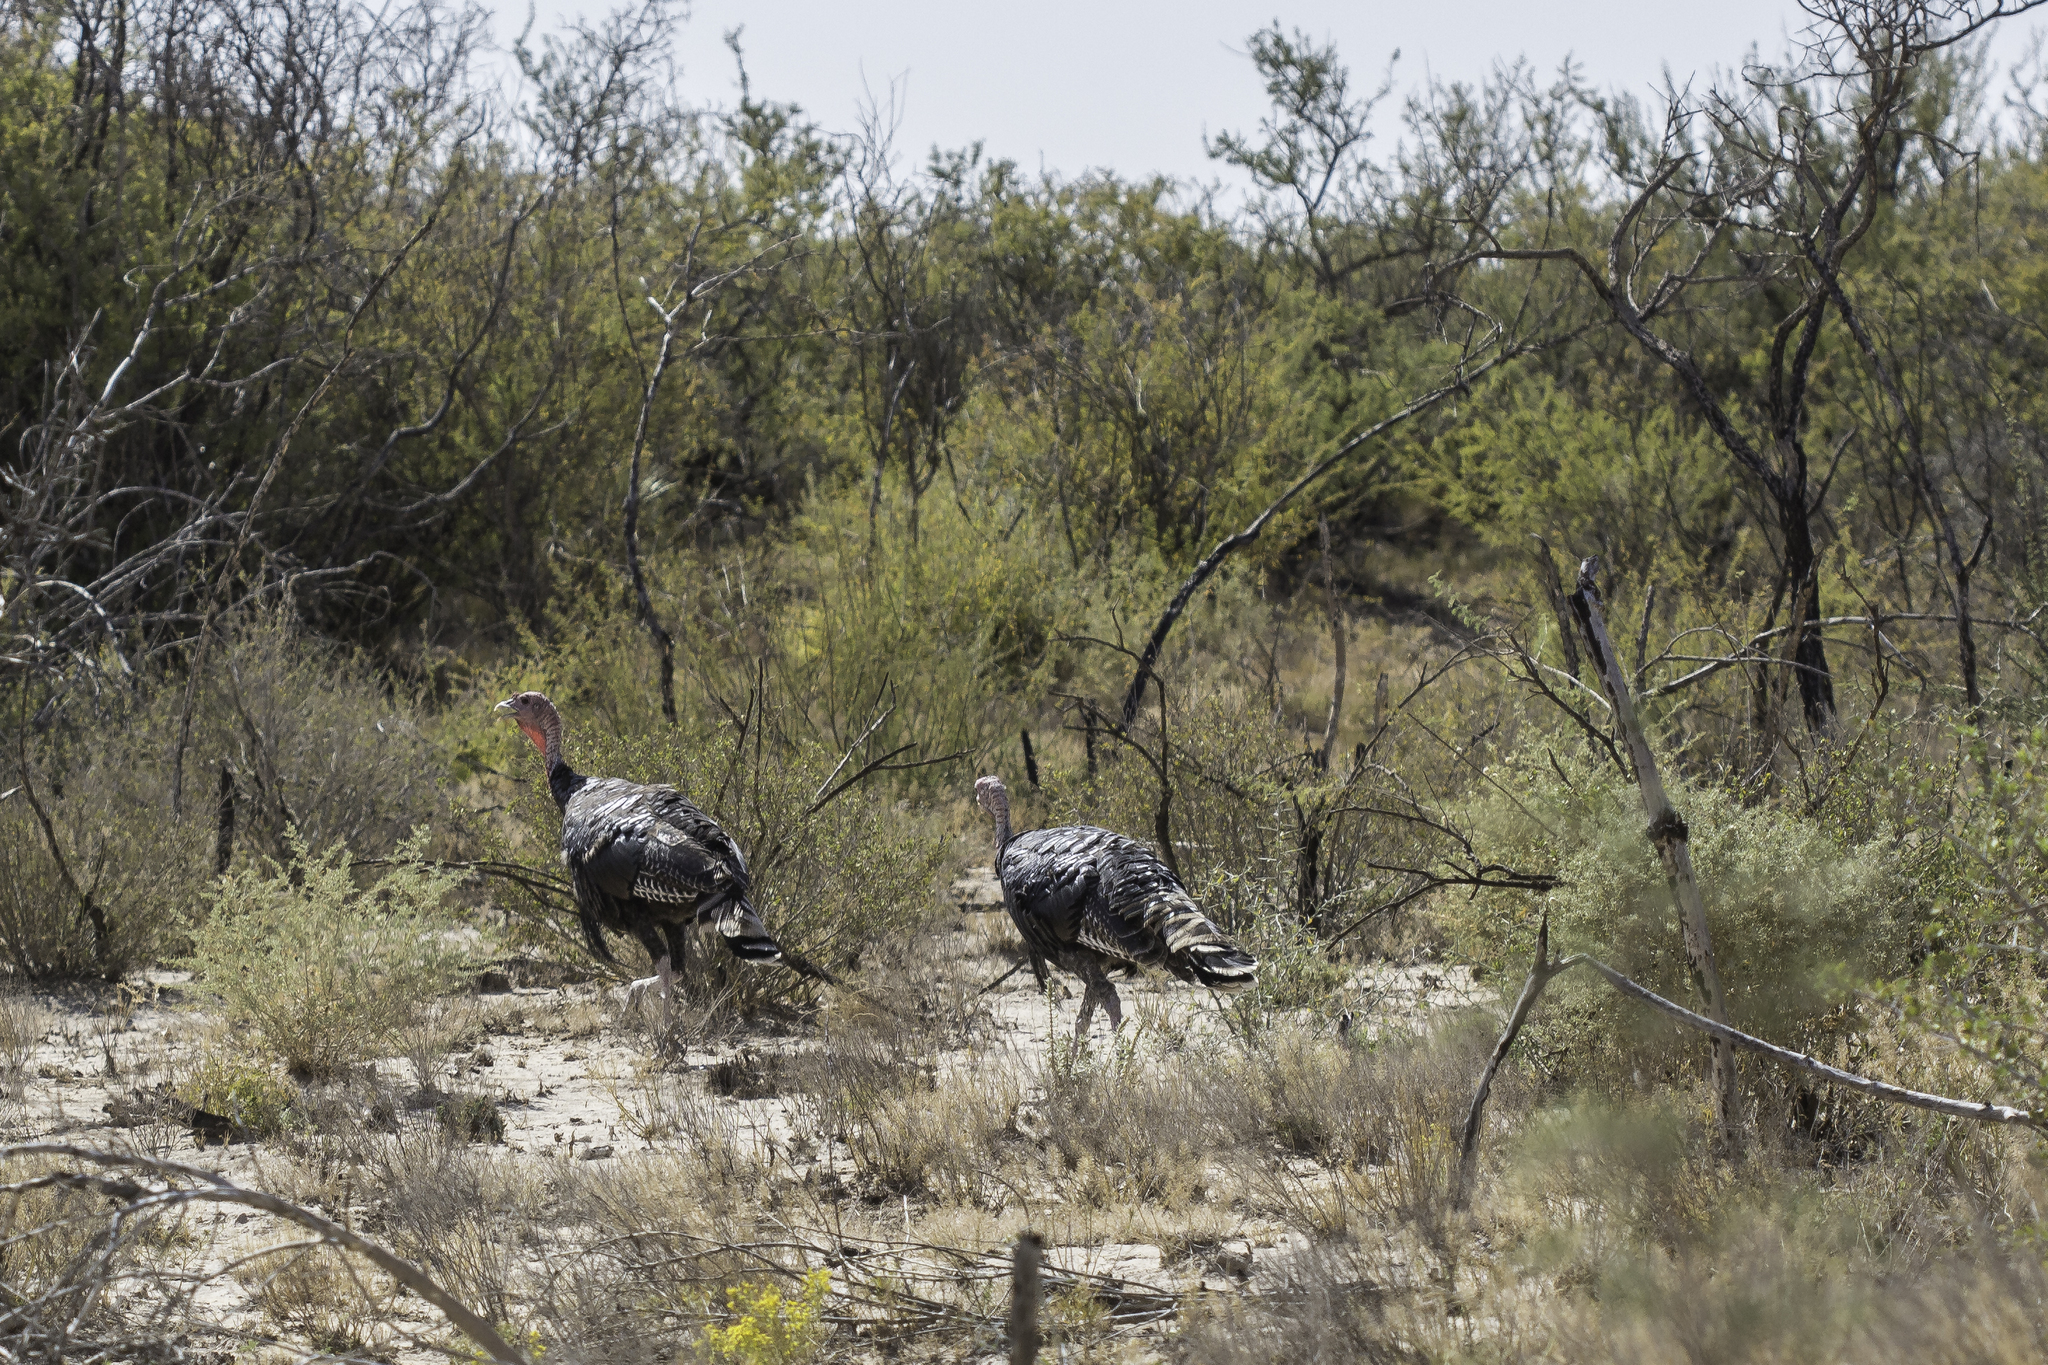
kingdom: Animalia
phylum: Chordata
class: Aves
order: Galliformes
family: Phasianidae
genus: Meleagris
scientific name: Meleagris gallopavo
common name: Wild turkey
